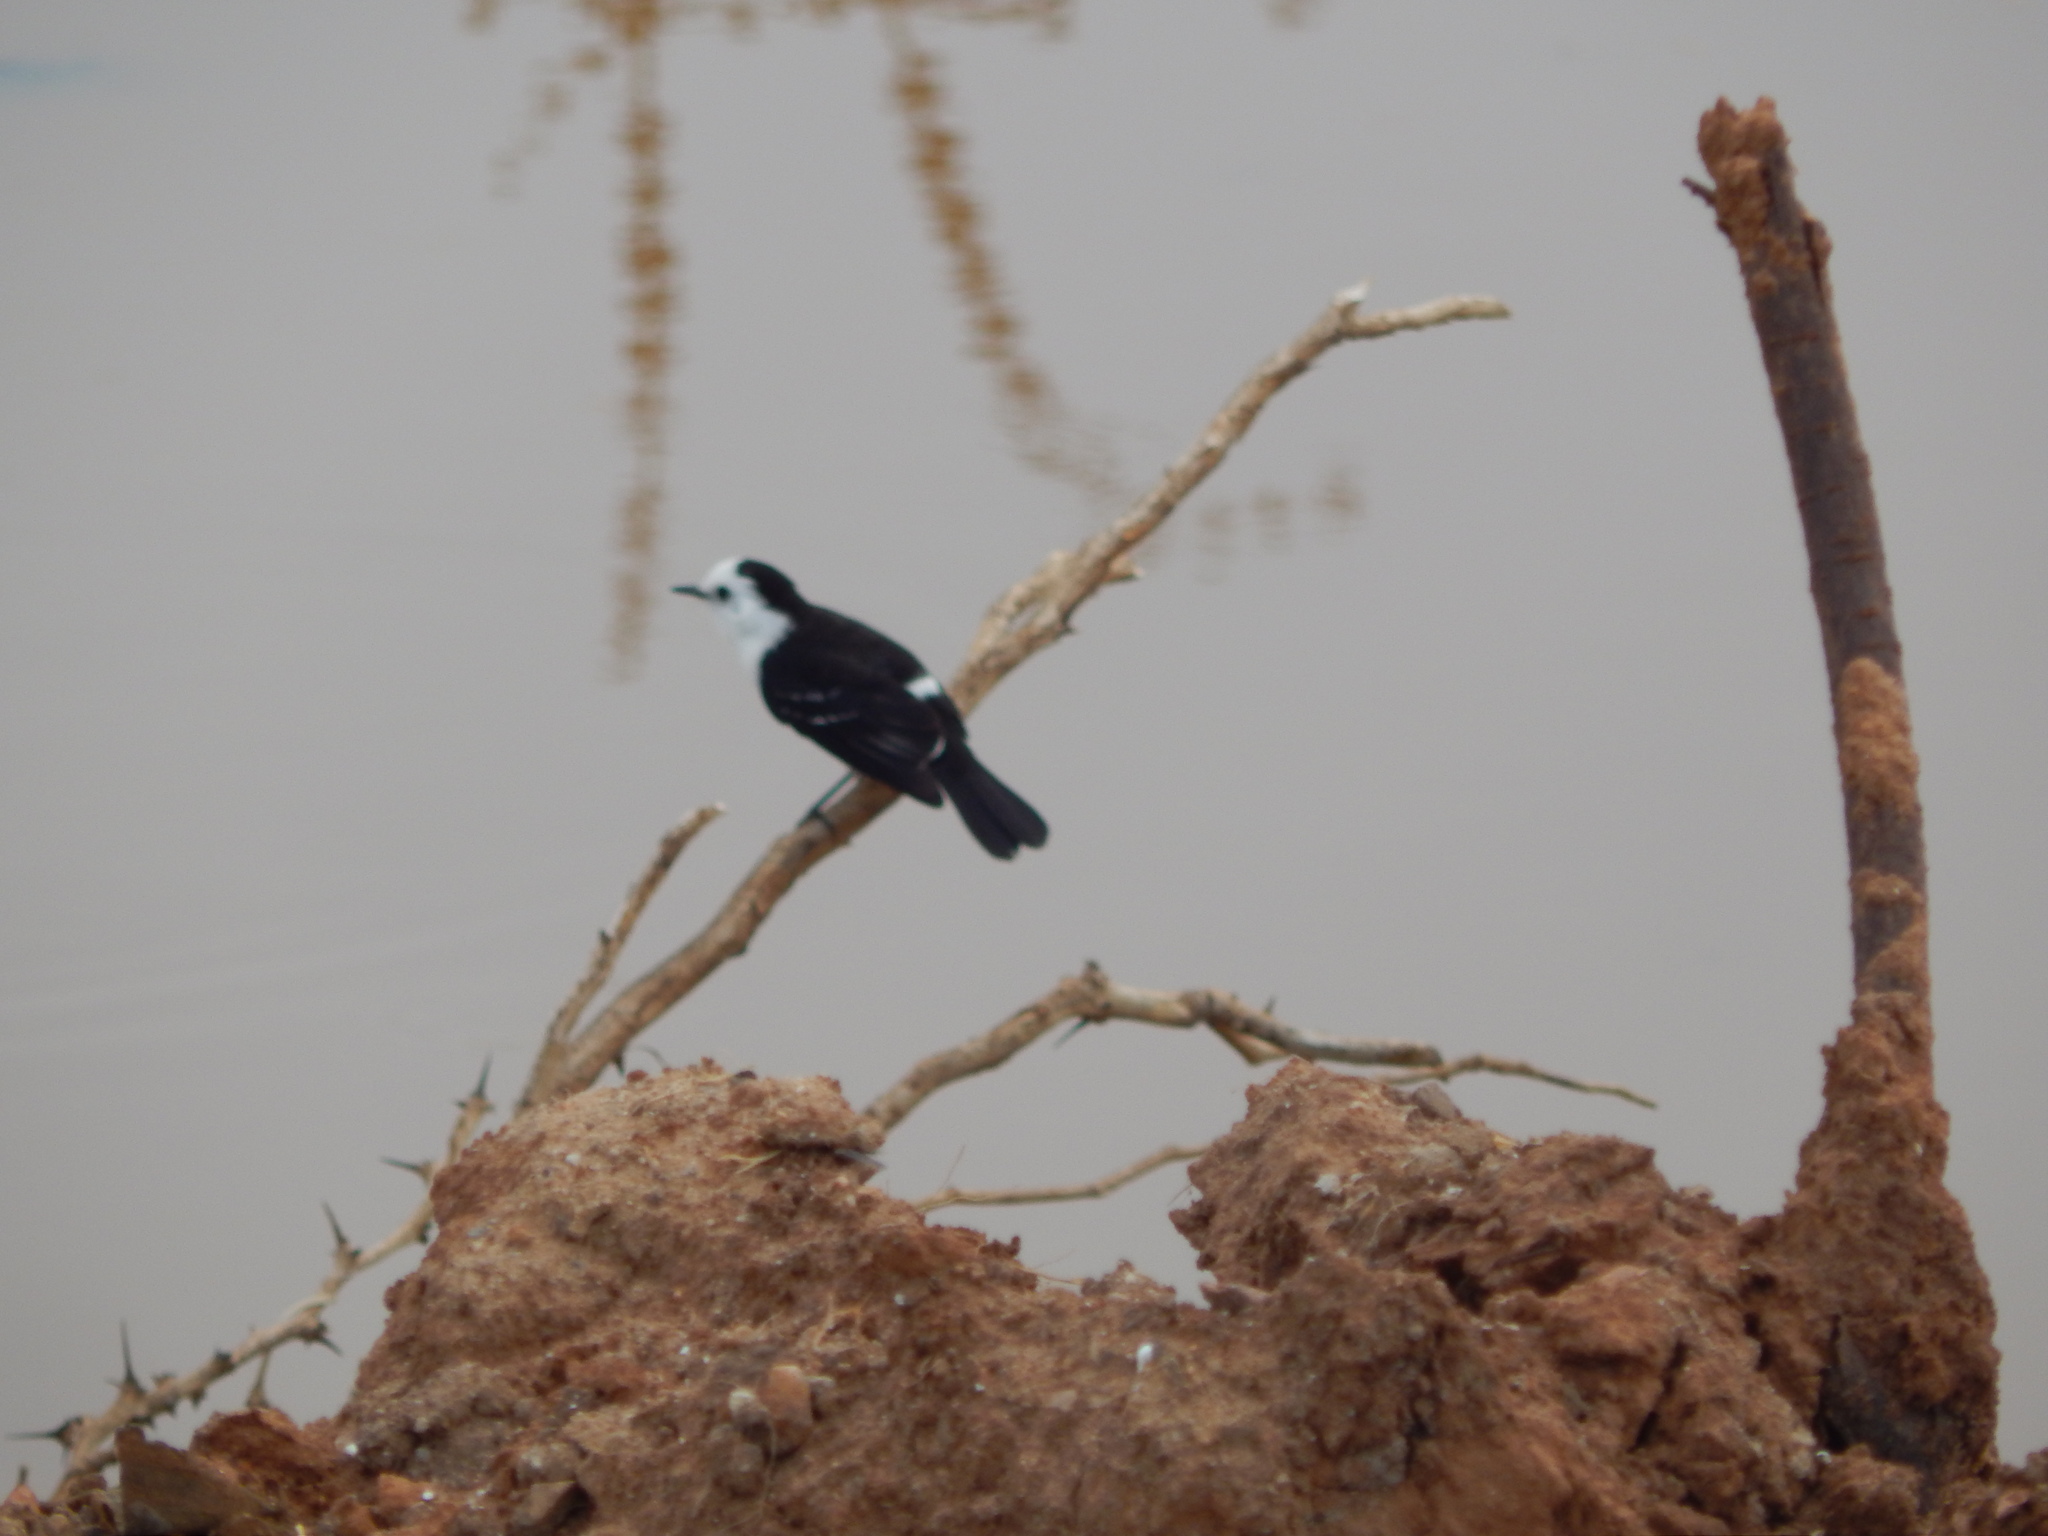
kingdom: Animalia
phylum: Chordata
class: Aves
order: Passeriformes
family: Tyrannidae
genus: Fluvicola
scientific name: Fluvicola pica
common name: Pied water-tyrant
